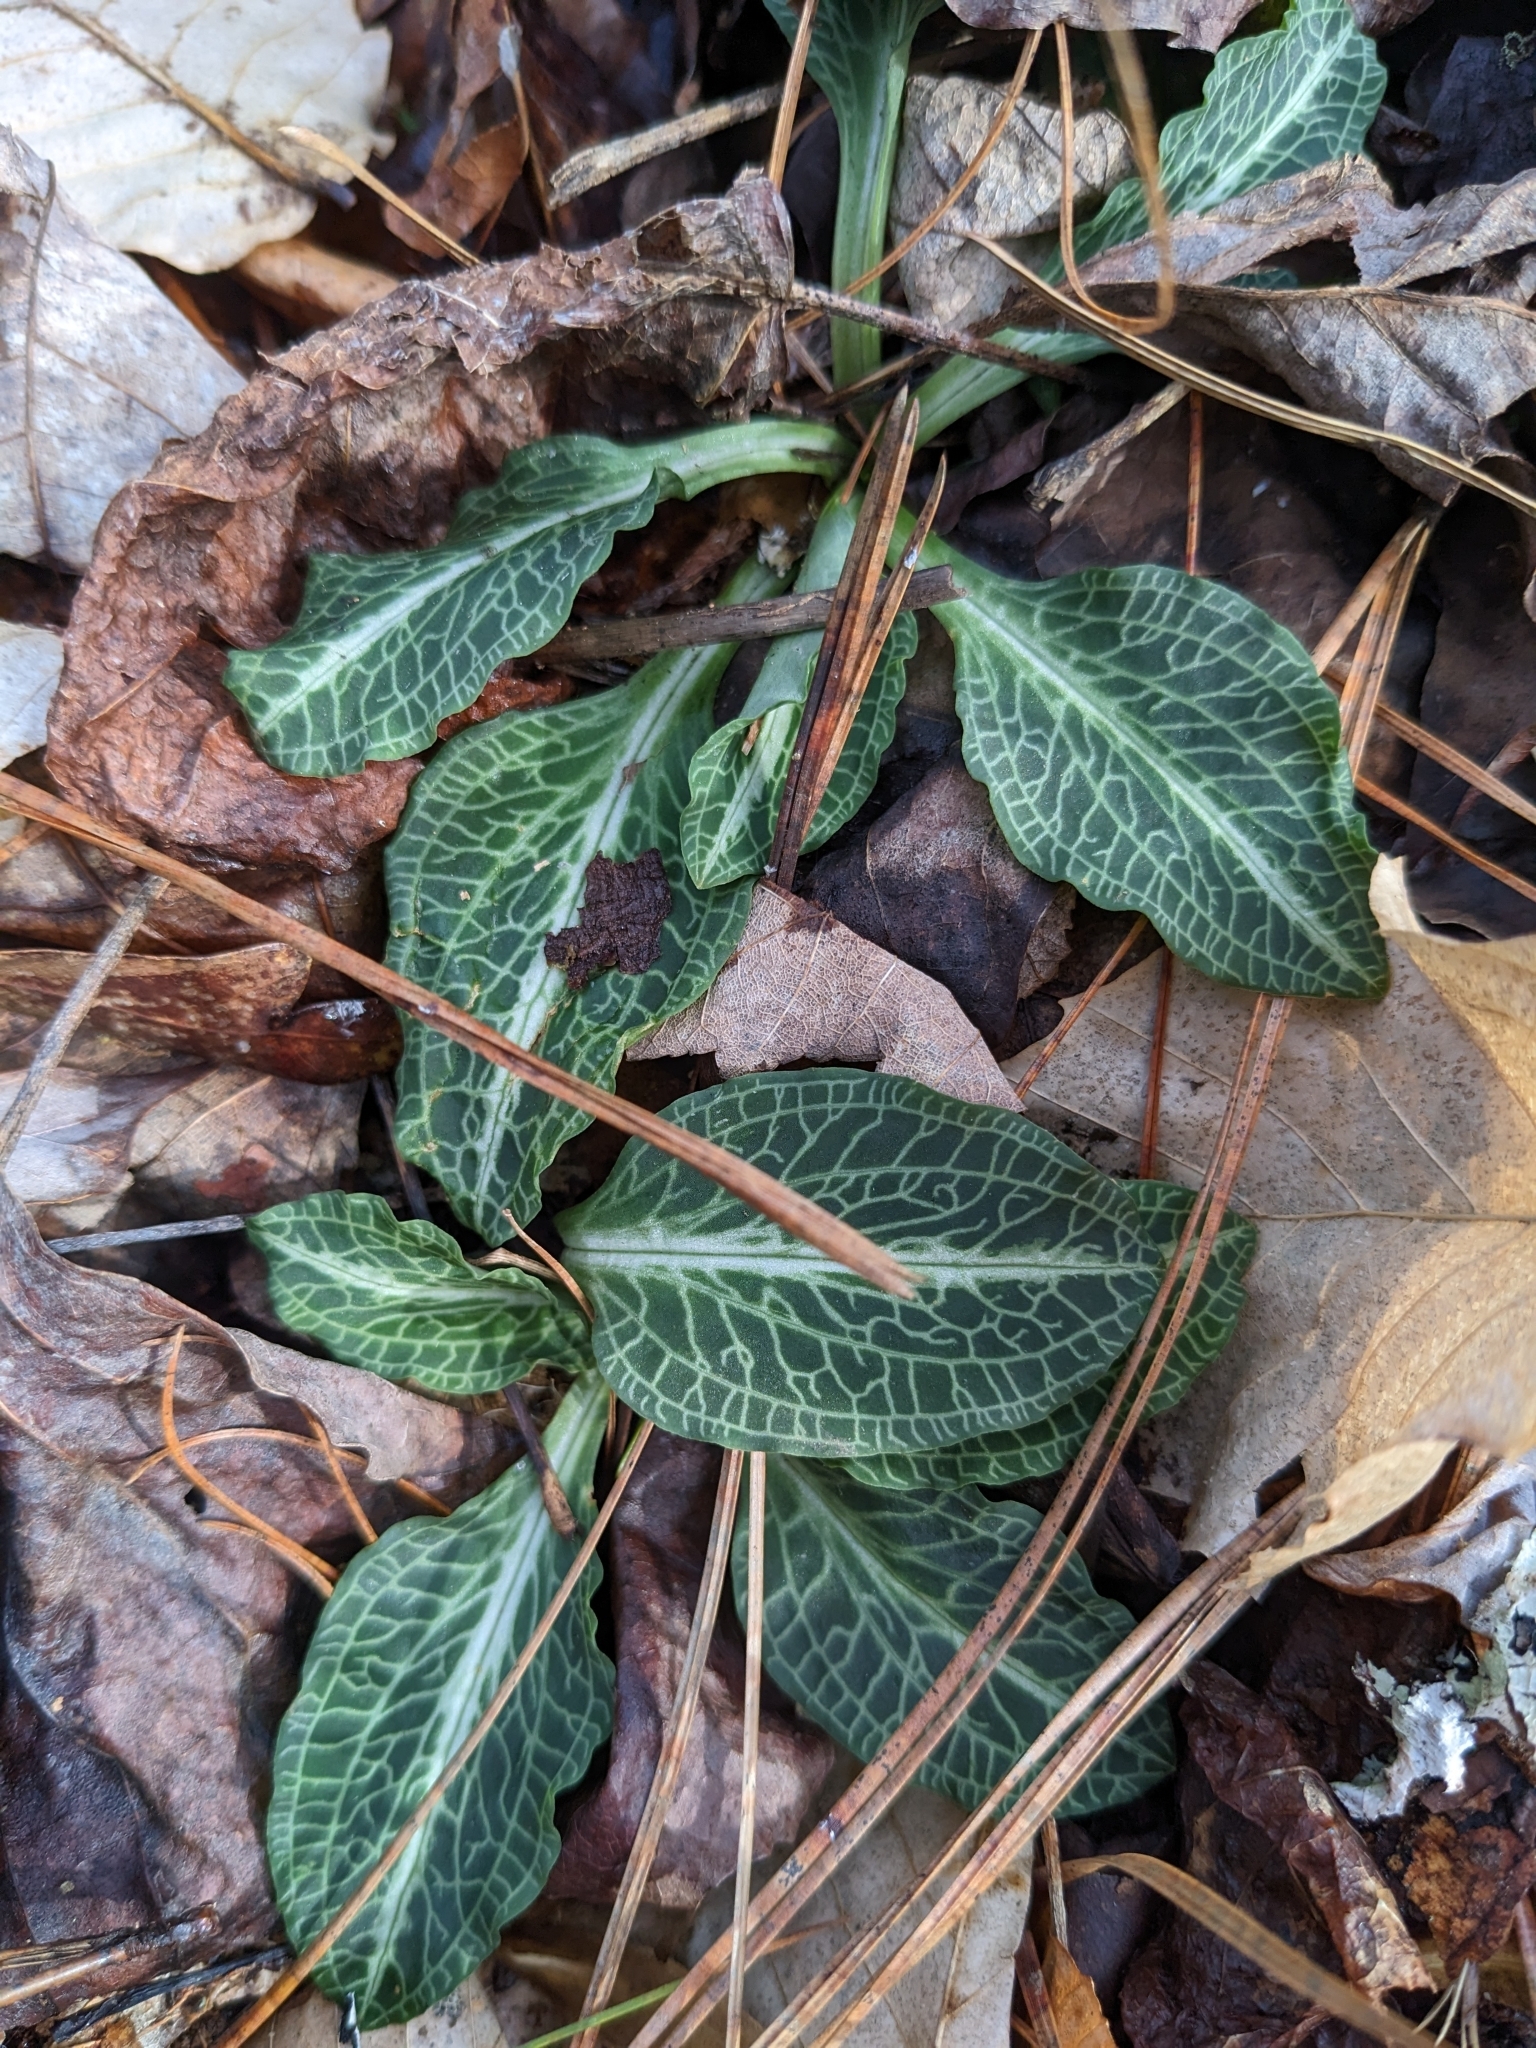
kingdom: Plantae
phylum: Tracheophyta
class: Liliopsida
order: Asparagales
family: Orchidaceae
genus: Goodyera
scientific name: Goodyera pubescens
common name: Downy rattlesnake-plantain
